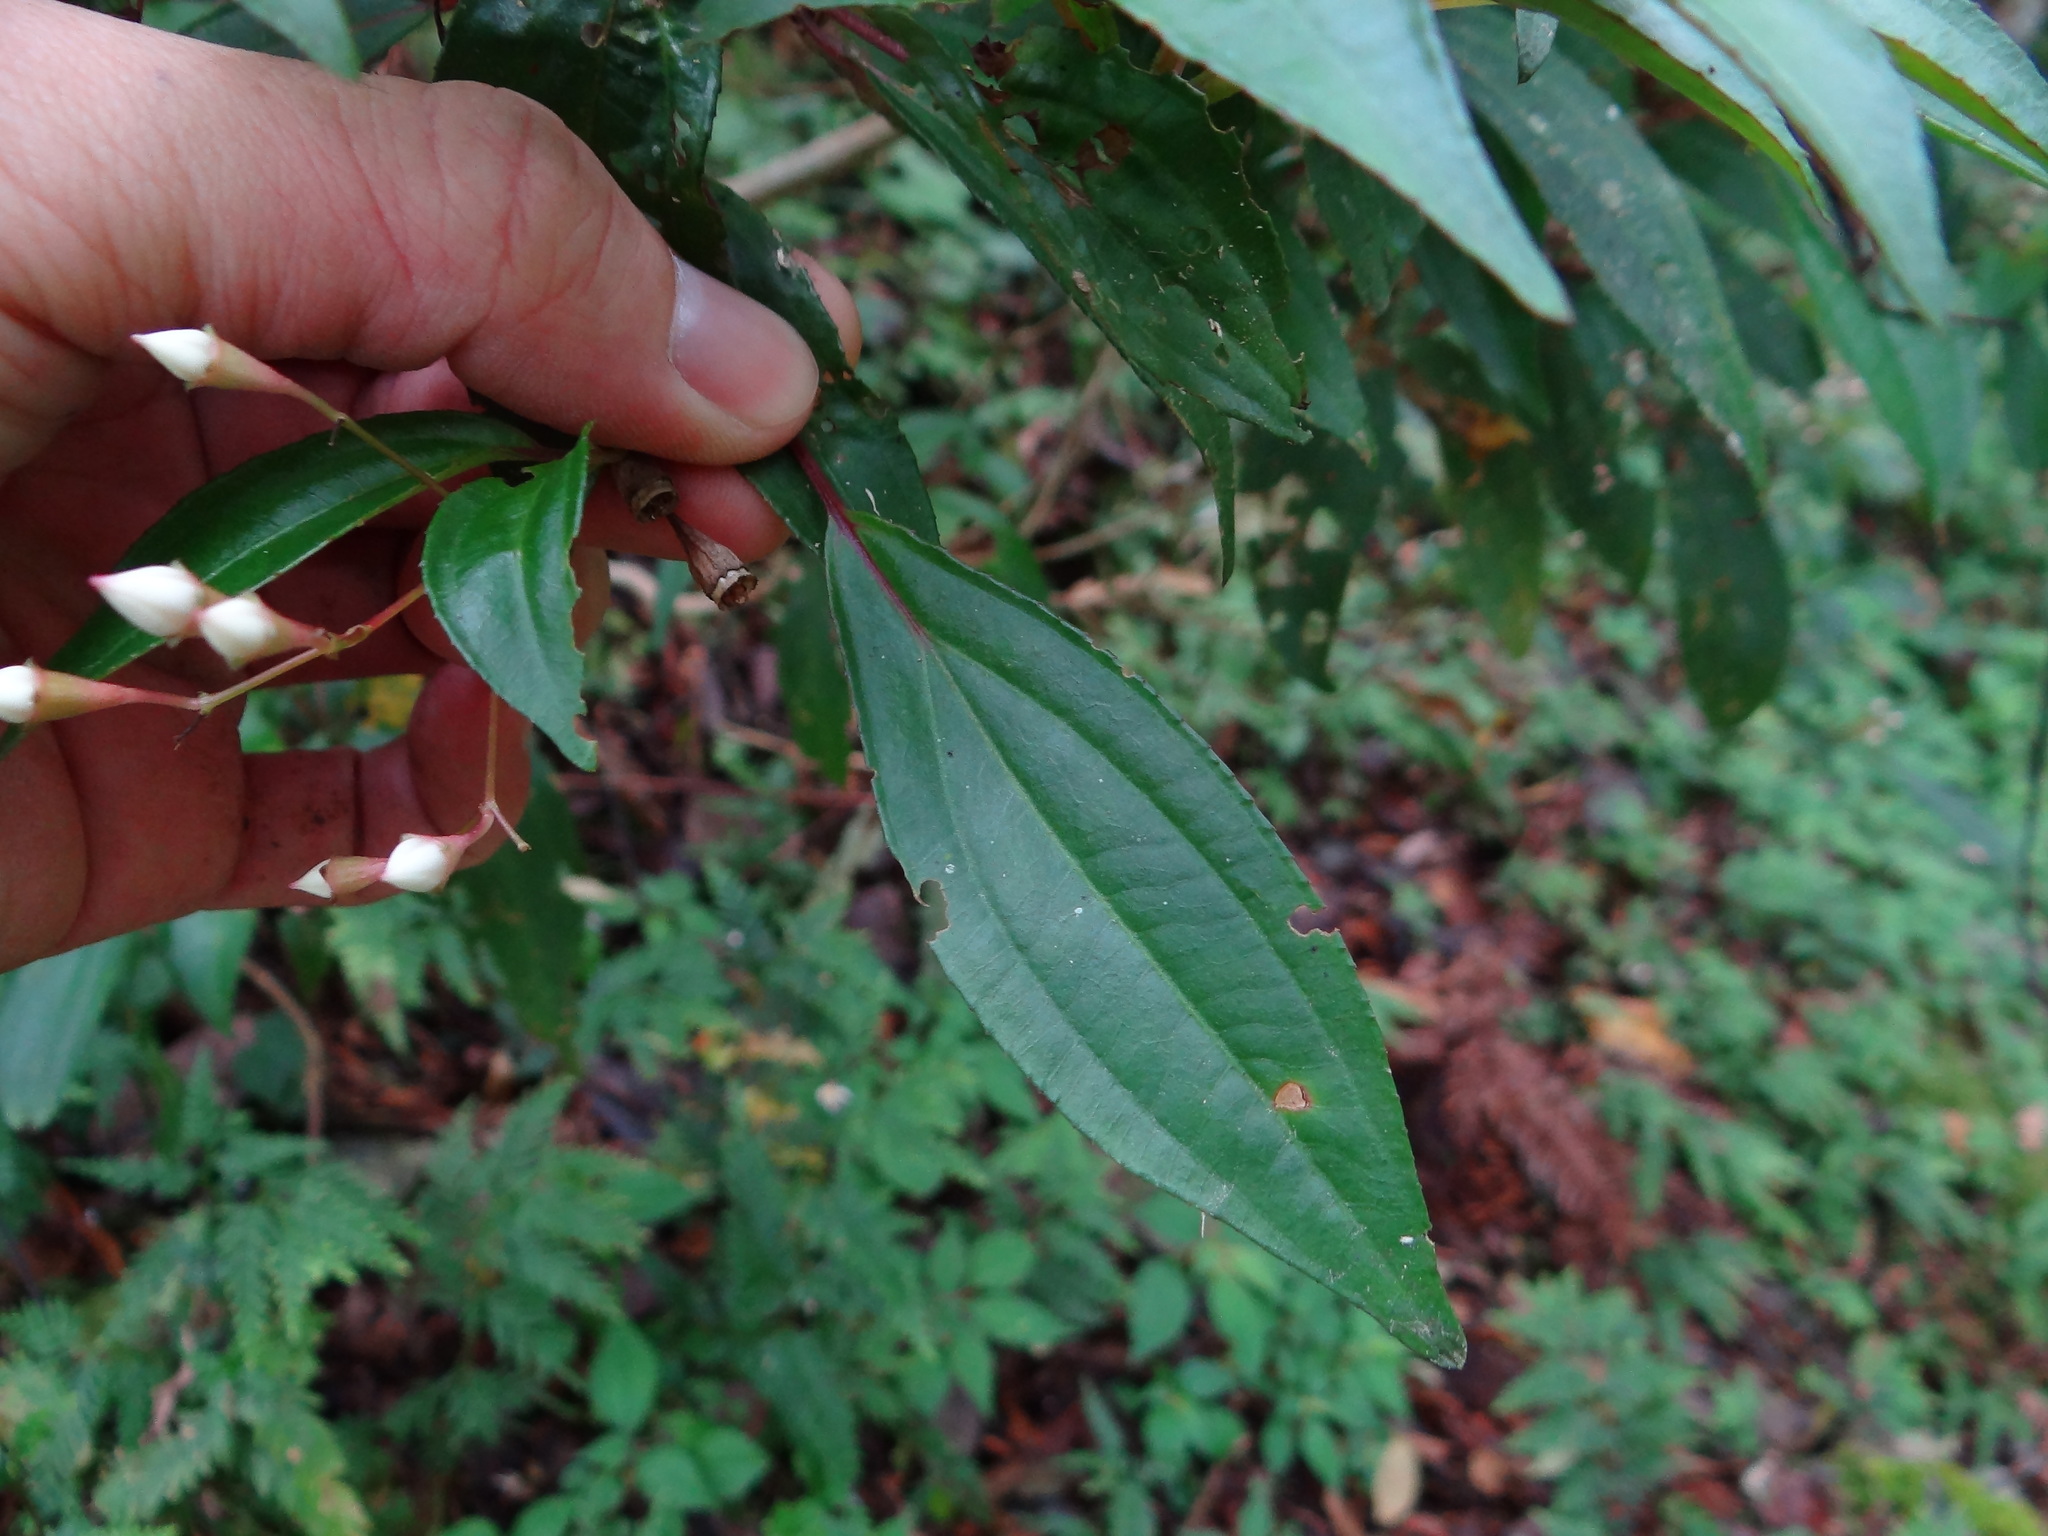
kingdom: Plantae
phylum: Tracheophyta
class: Magnoliopsida
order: Myrtales
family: Melastomataceae
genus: Bredia
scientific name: Bredia oldhamii
